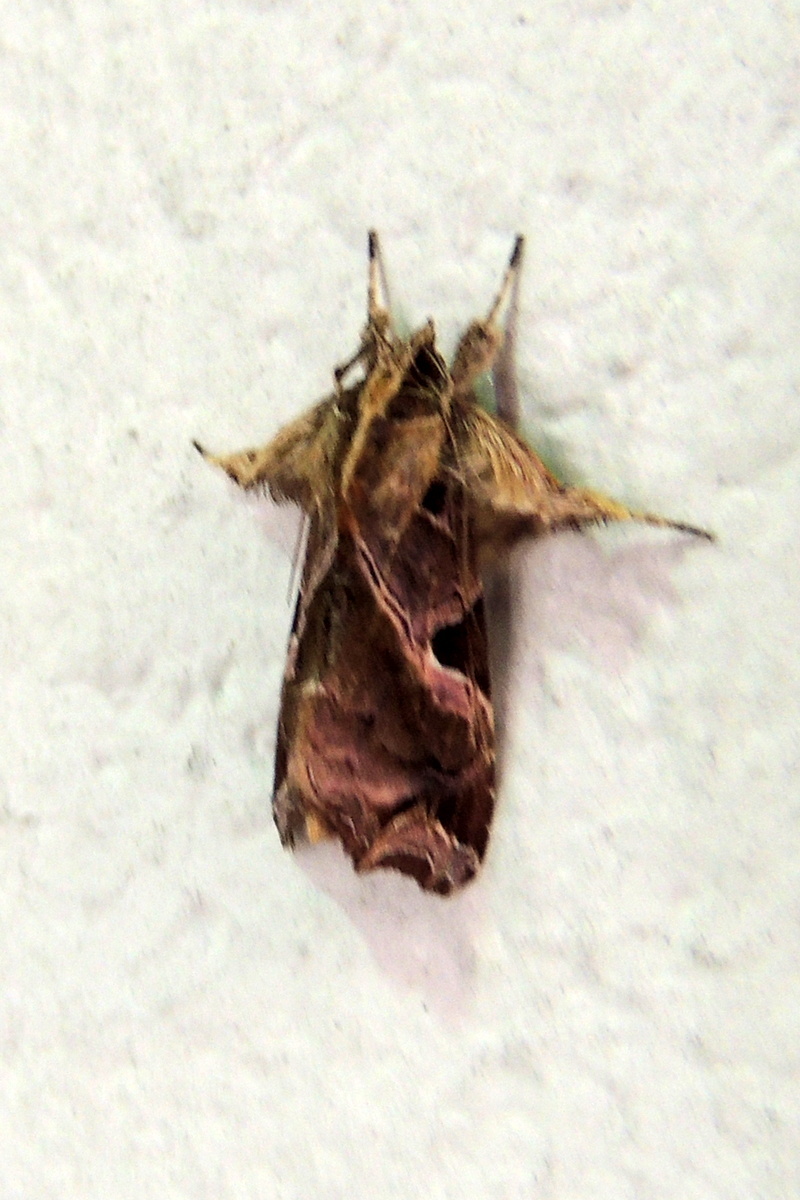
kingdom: Animalia
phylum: Arthropoda
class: Insecta
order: Lepidoptera
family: Noctuidae
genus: Callopistria
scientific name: Callopistria floridensis
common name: Florida fern moth
